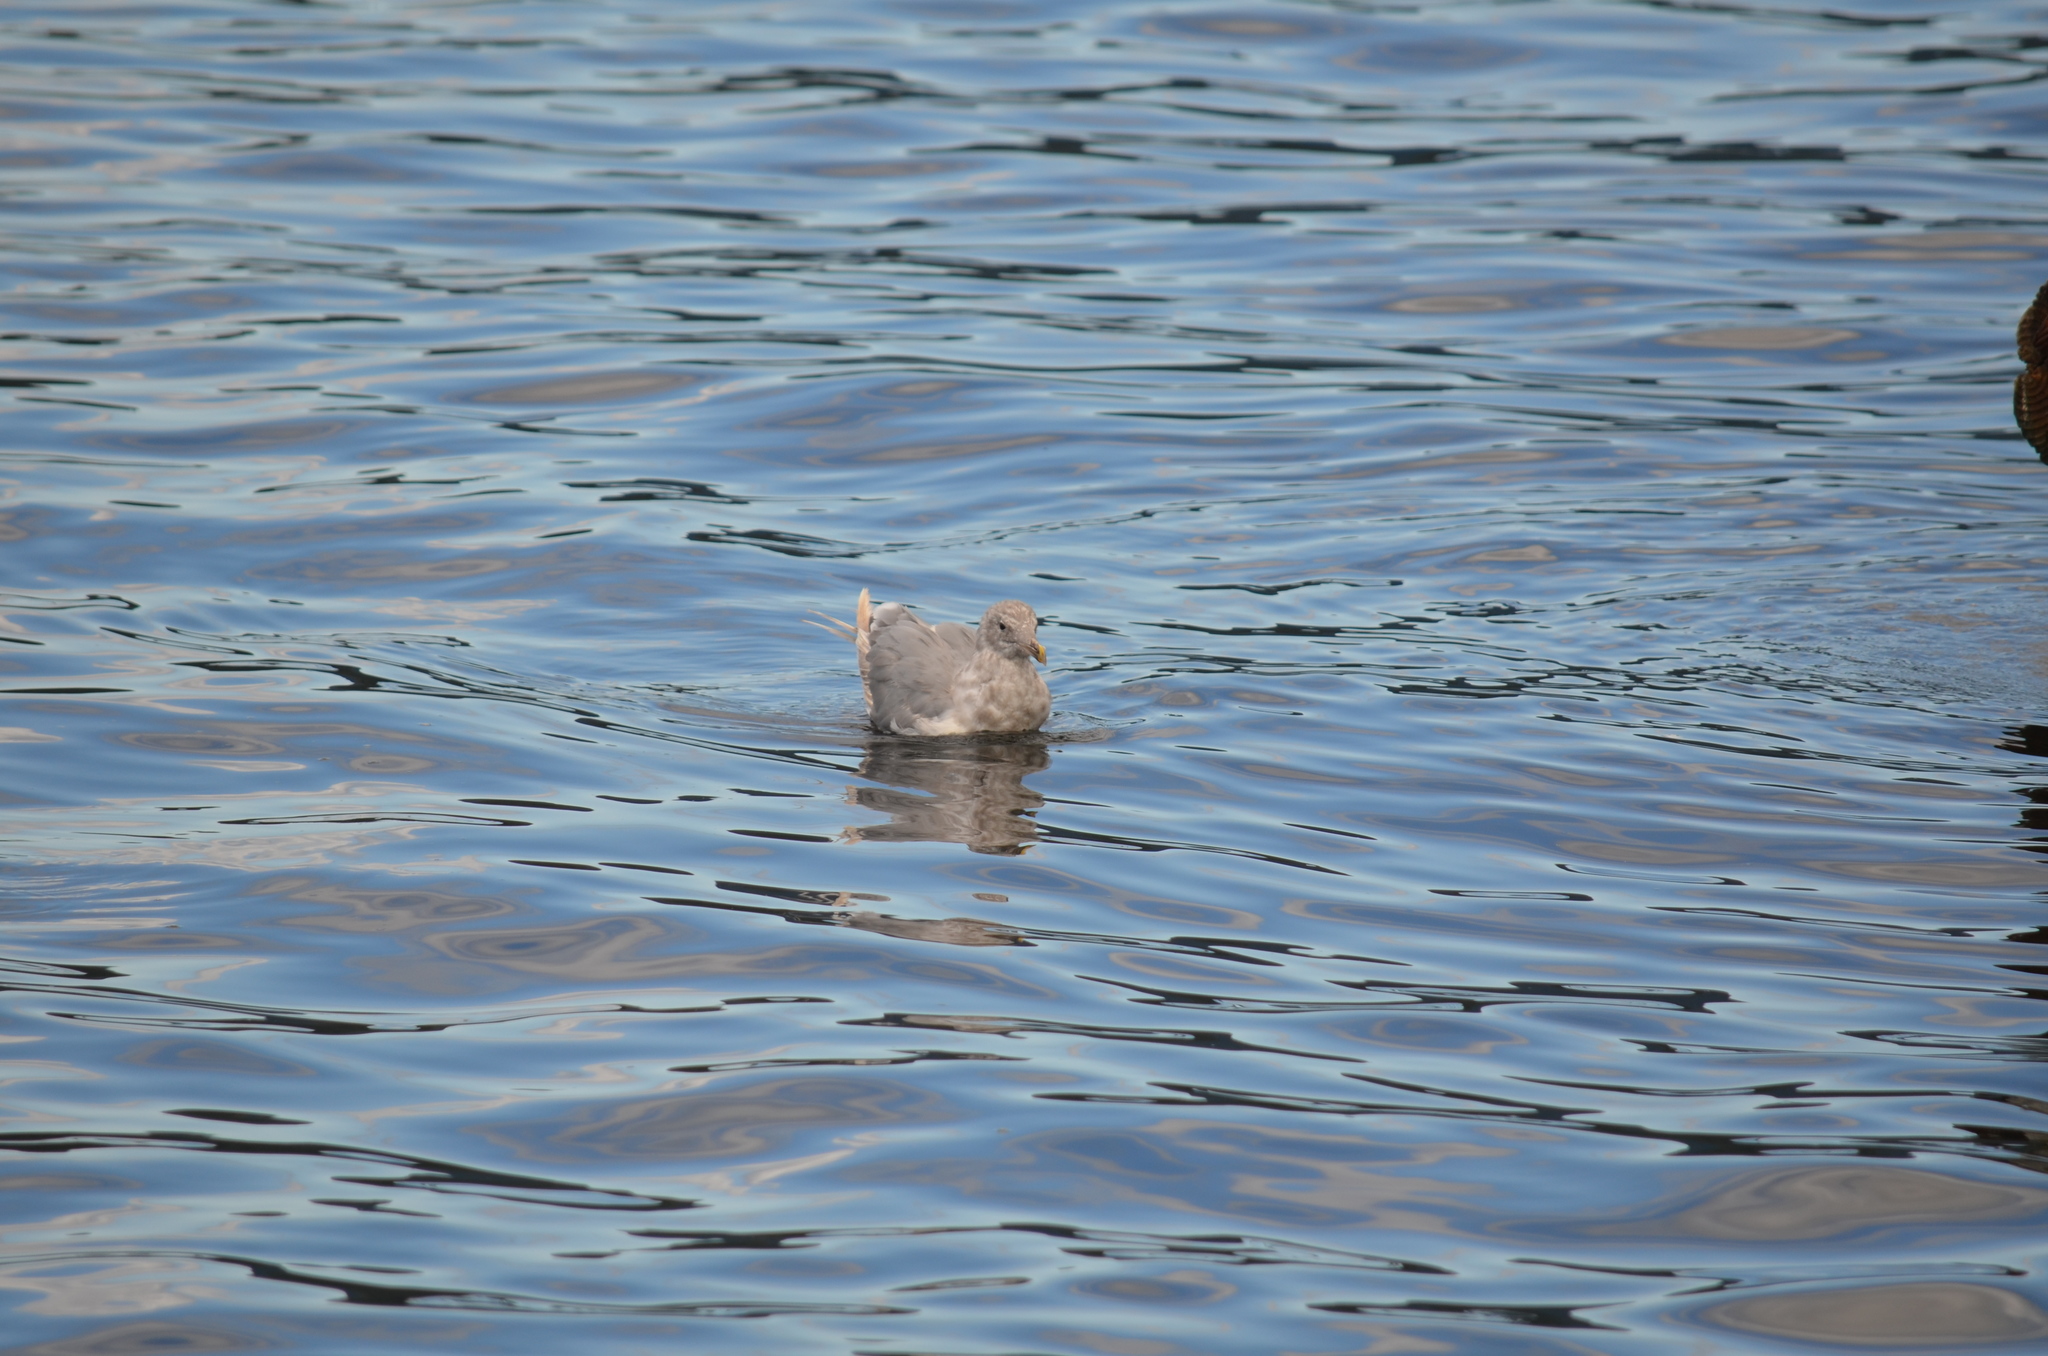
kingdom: Animalia
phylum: Chordata
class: Aves
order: Charadriiformes
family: Laridae
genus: Larus
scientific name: Larus glaucescens
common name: Glaucous-winged gull
